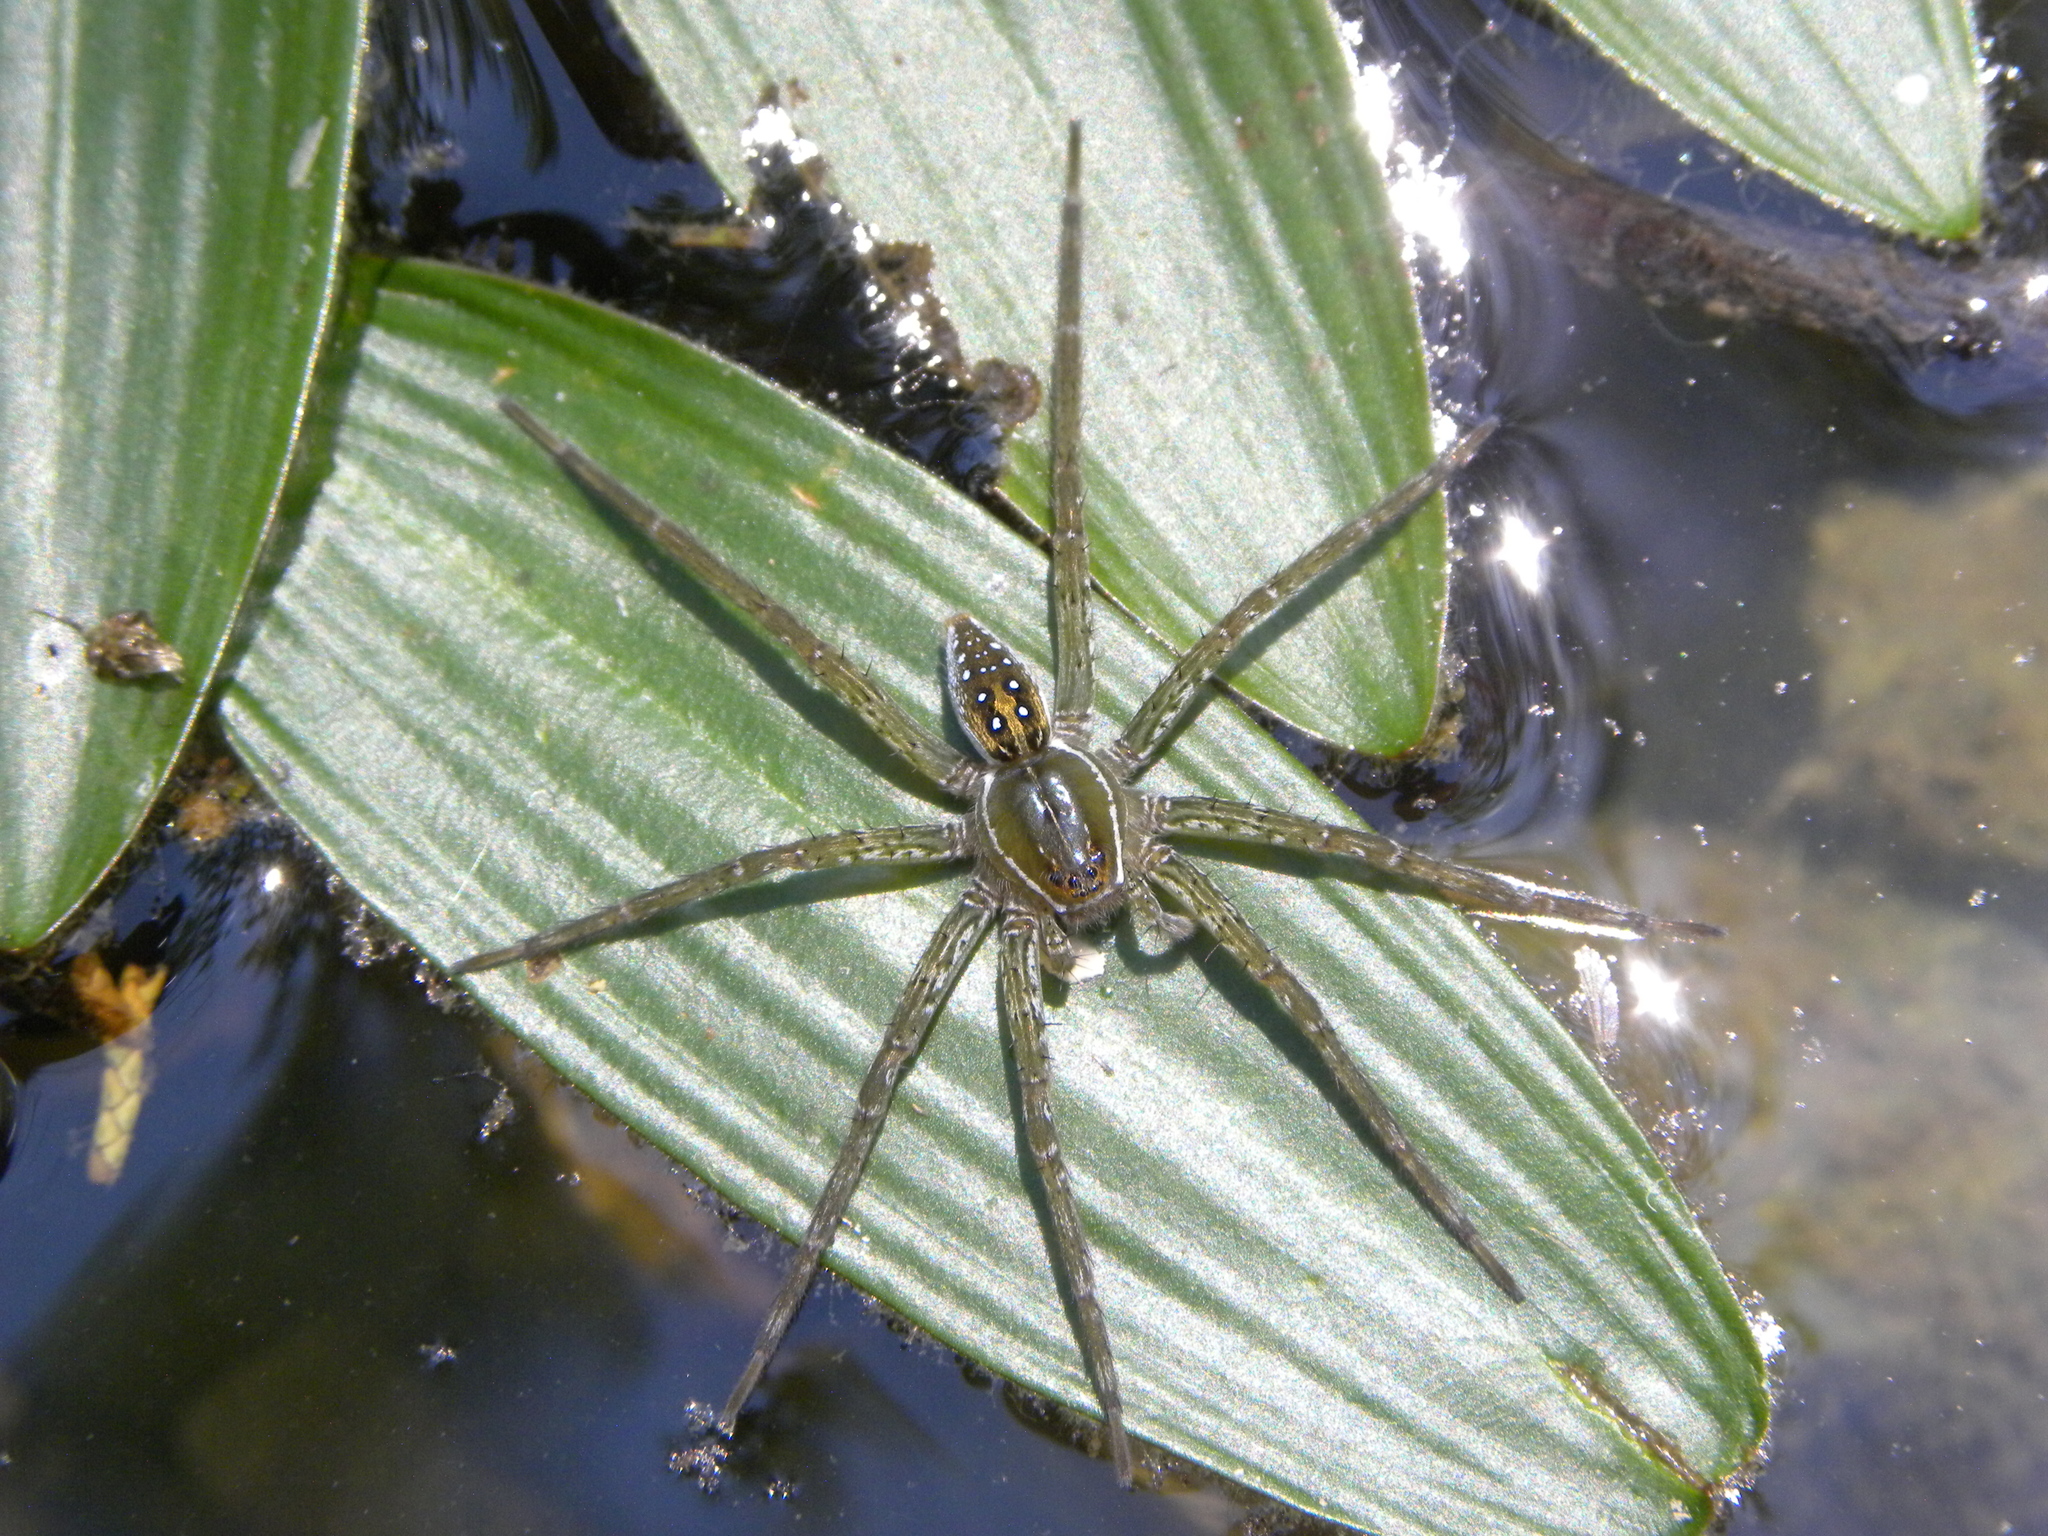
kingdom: Animalia
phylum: Arthropoda
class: Arachnida
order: Araneae
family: Pisauridae
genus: Dolomedes
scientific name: Dolomedes triton
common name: Six-spotted fishing spider
